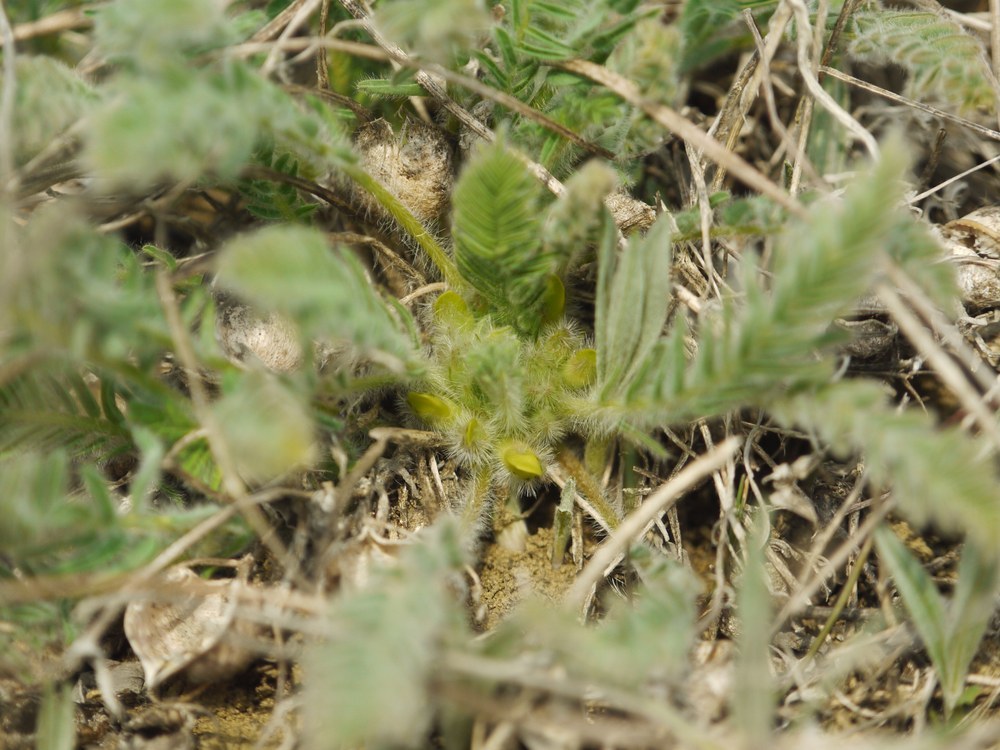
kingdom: Plantae
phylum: Tracheophyta
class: Magnoliopsida
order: Fabales
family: Fabaceae
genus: Astragalus
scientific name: Astragalus buchtormensis
